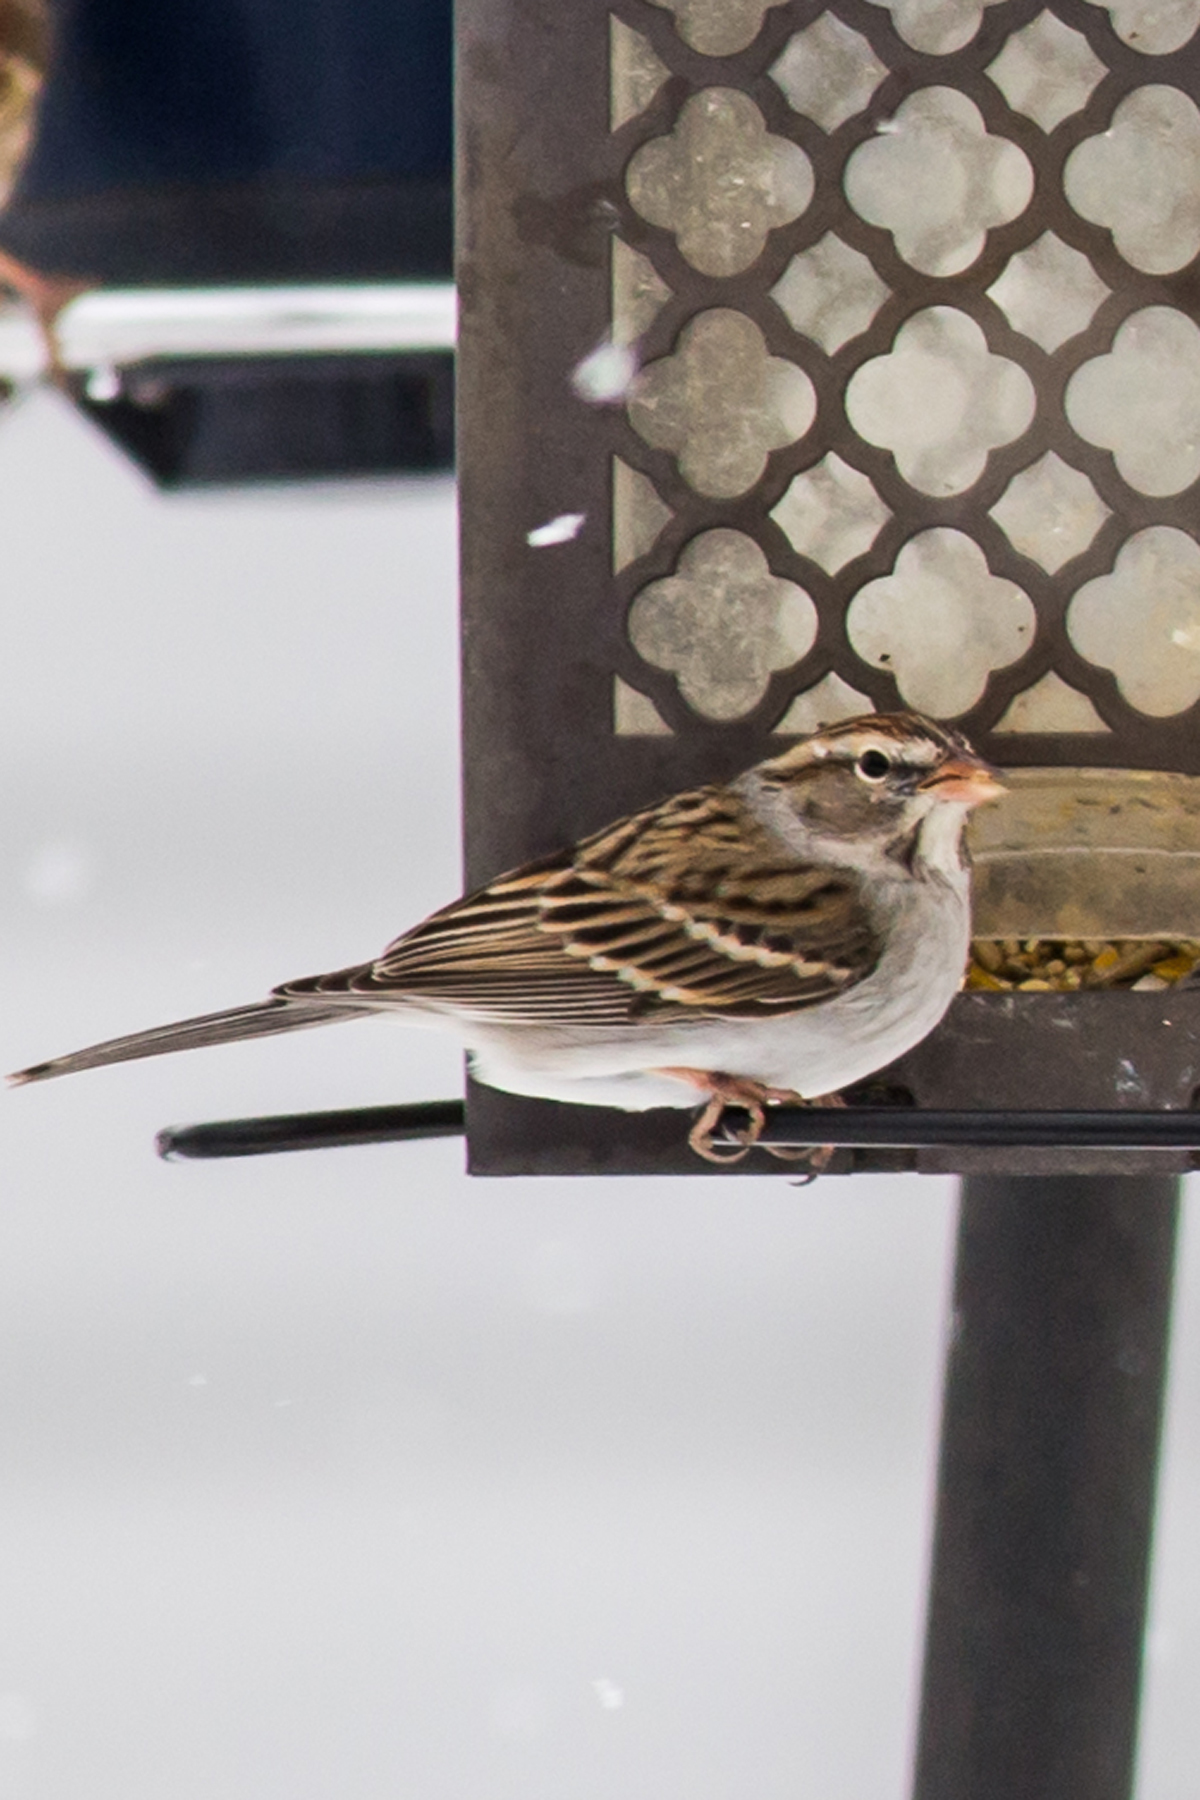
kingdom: Animalia
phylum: Chordata
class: Aves
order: Passeriformes
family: Passerellidae
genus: Spizella
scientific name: Spizella passerina
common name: Chipping sparrow
